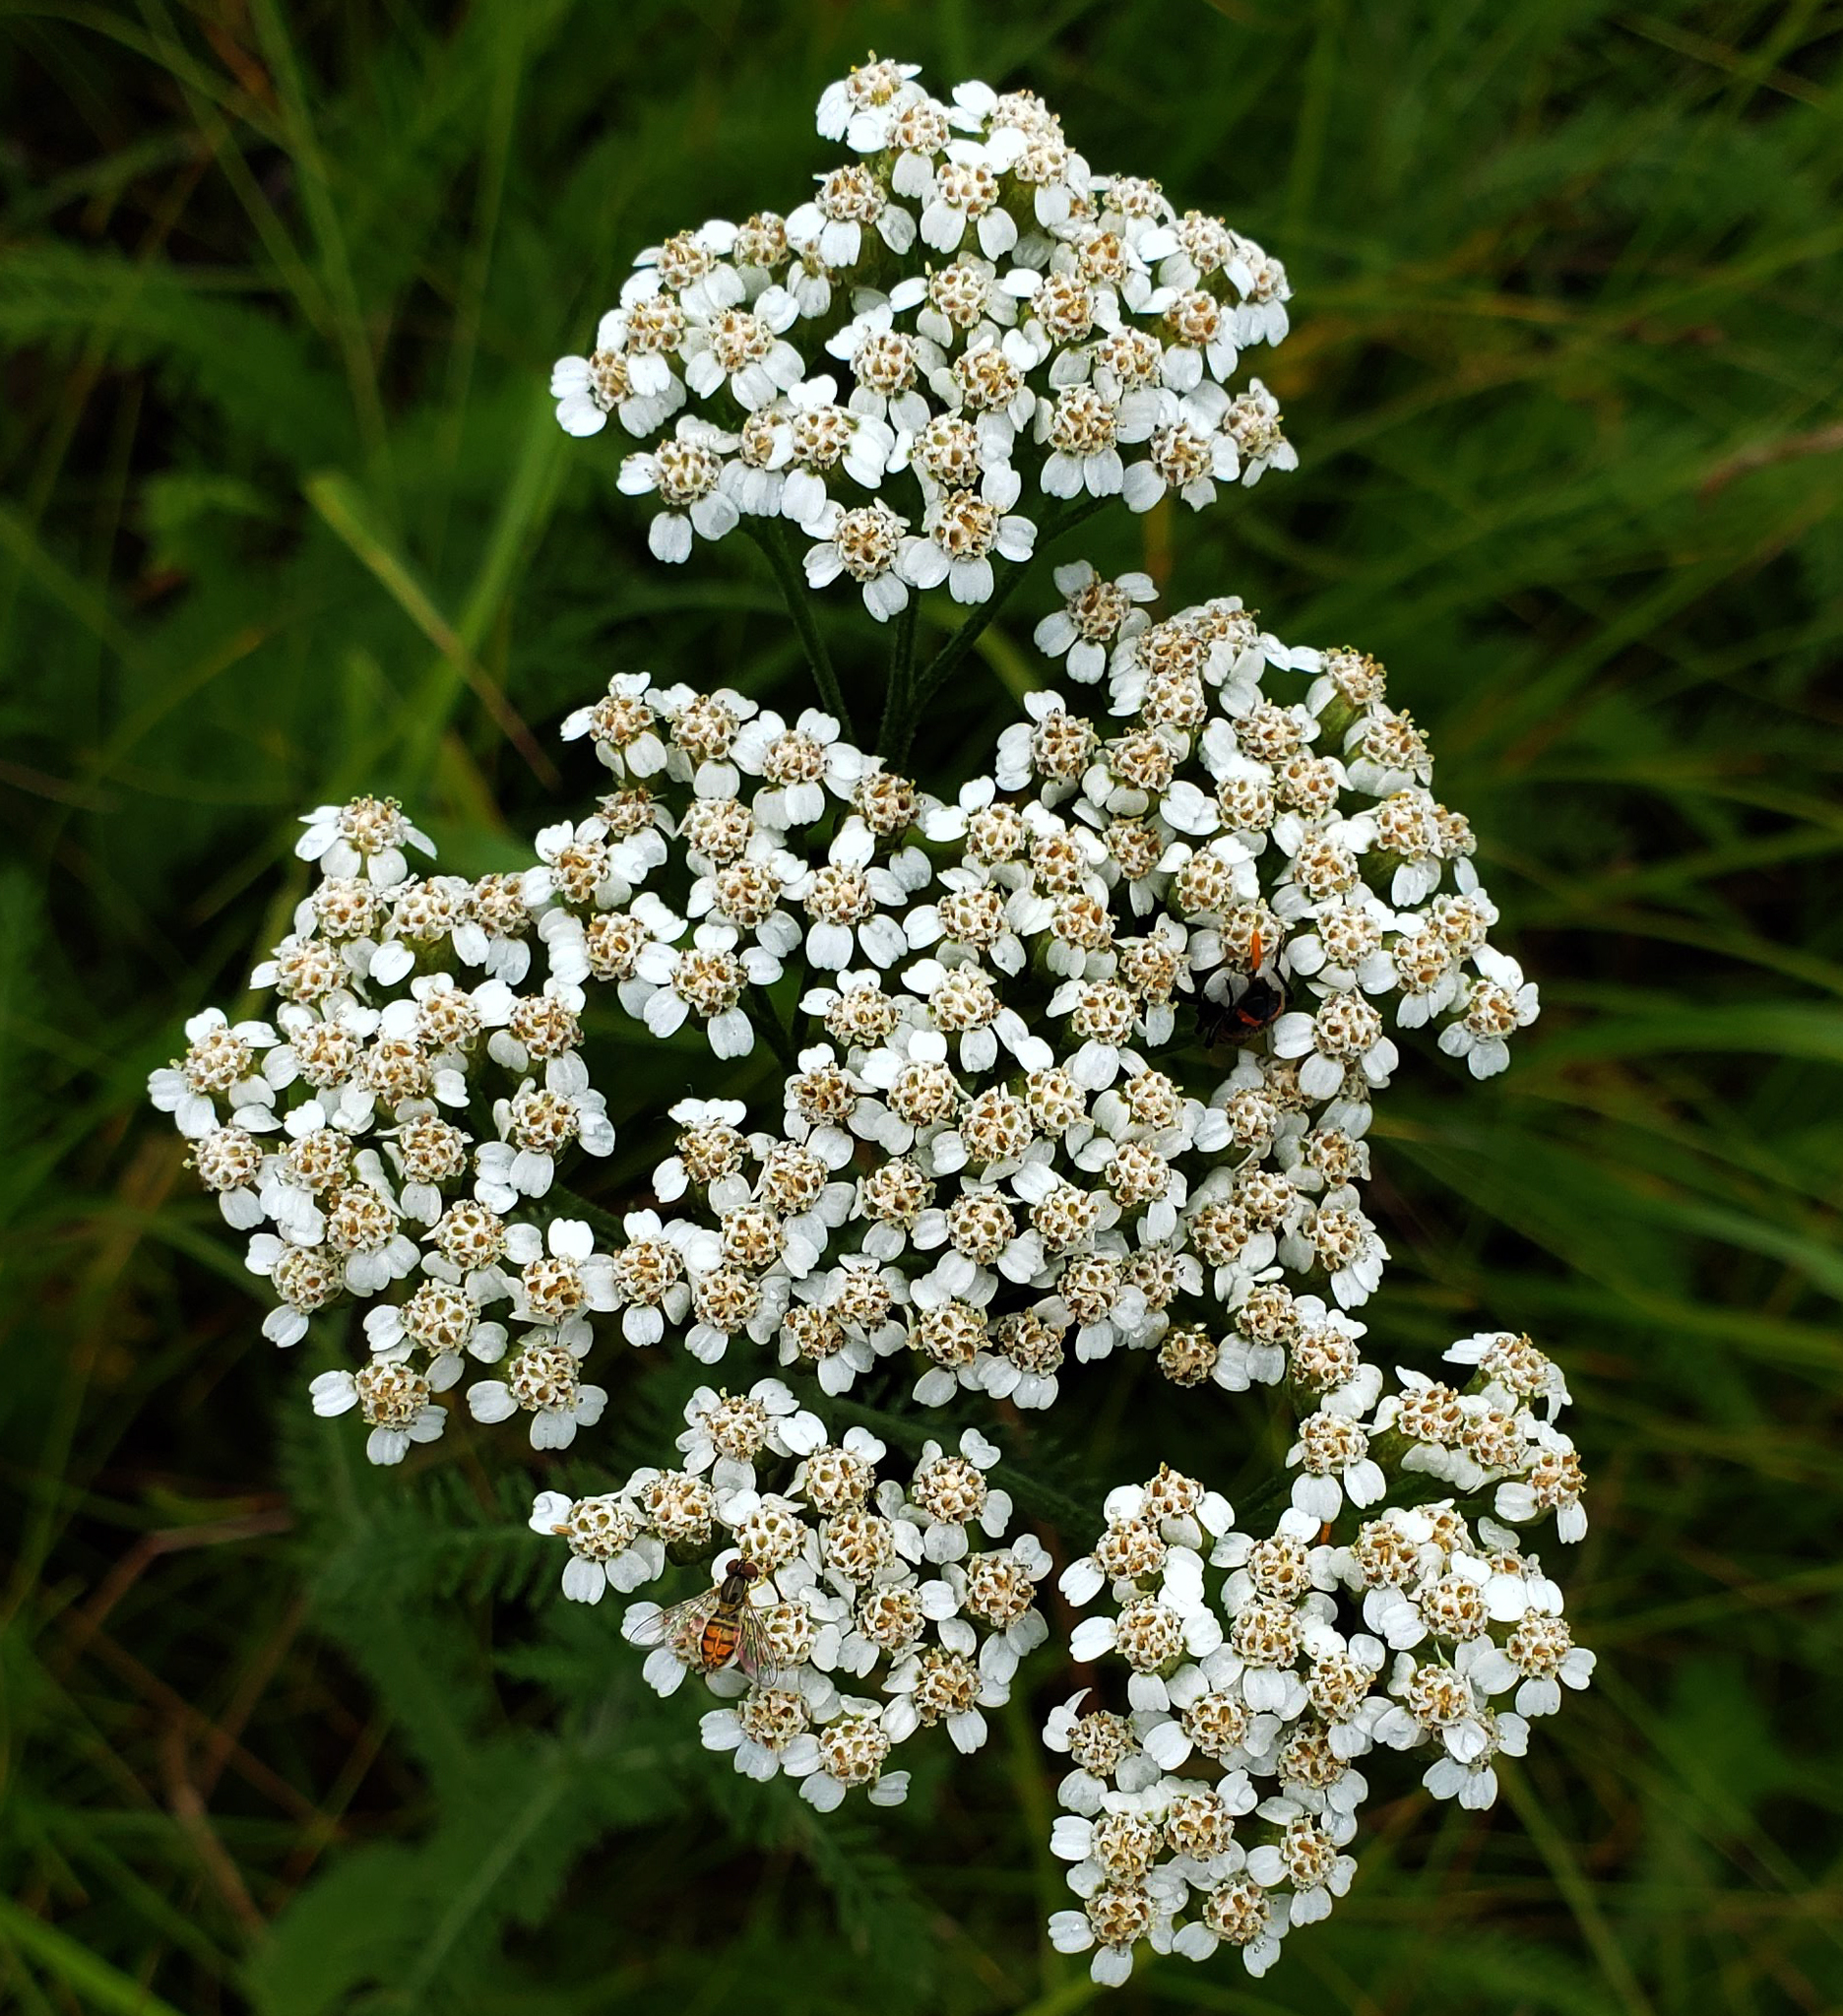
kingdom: Plantae
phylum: Tracheophyta
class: Magnoliopsida
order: Asterales
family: Asteraceae
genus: Achillea
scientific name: Achillea millefolium
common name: Yarrow
